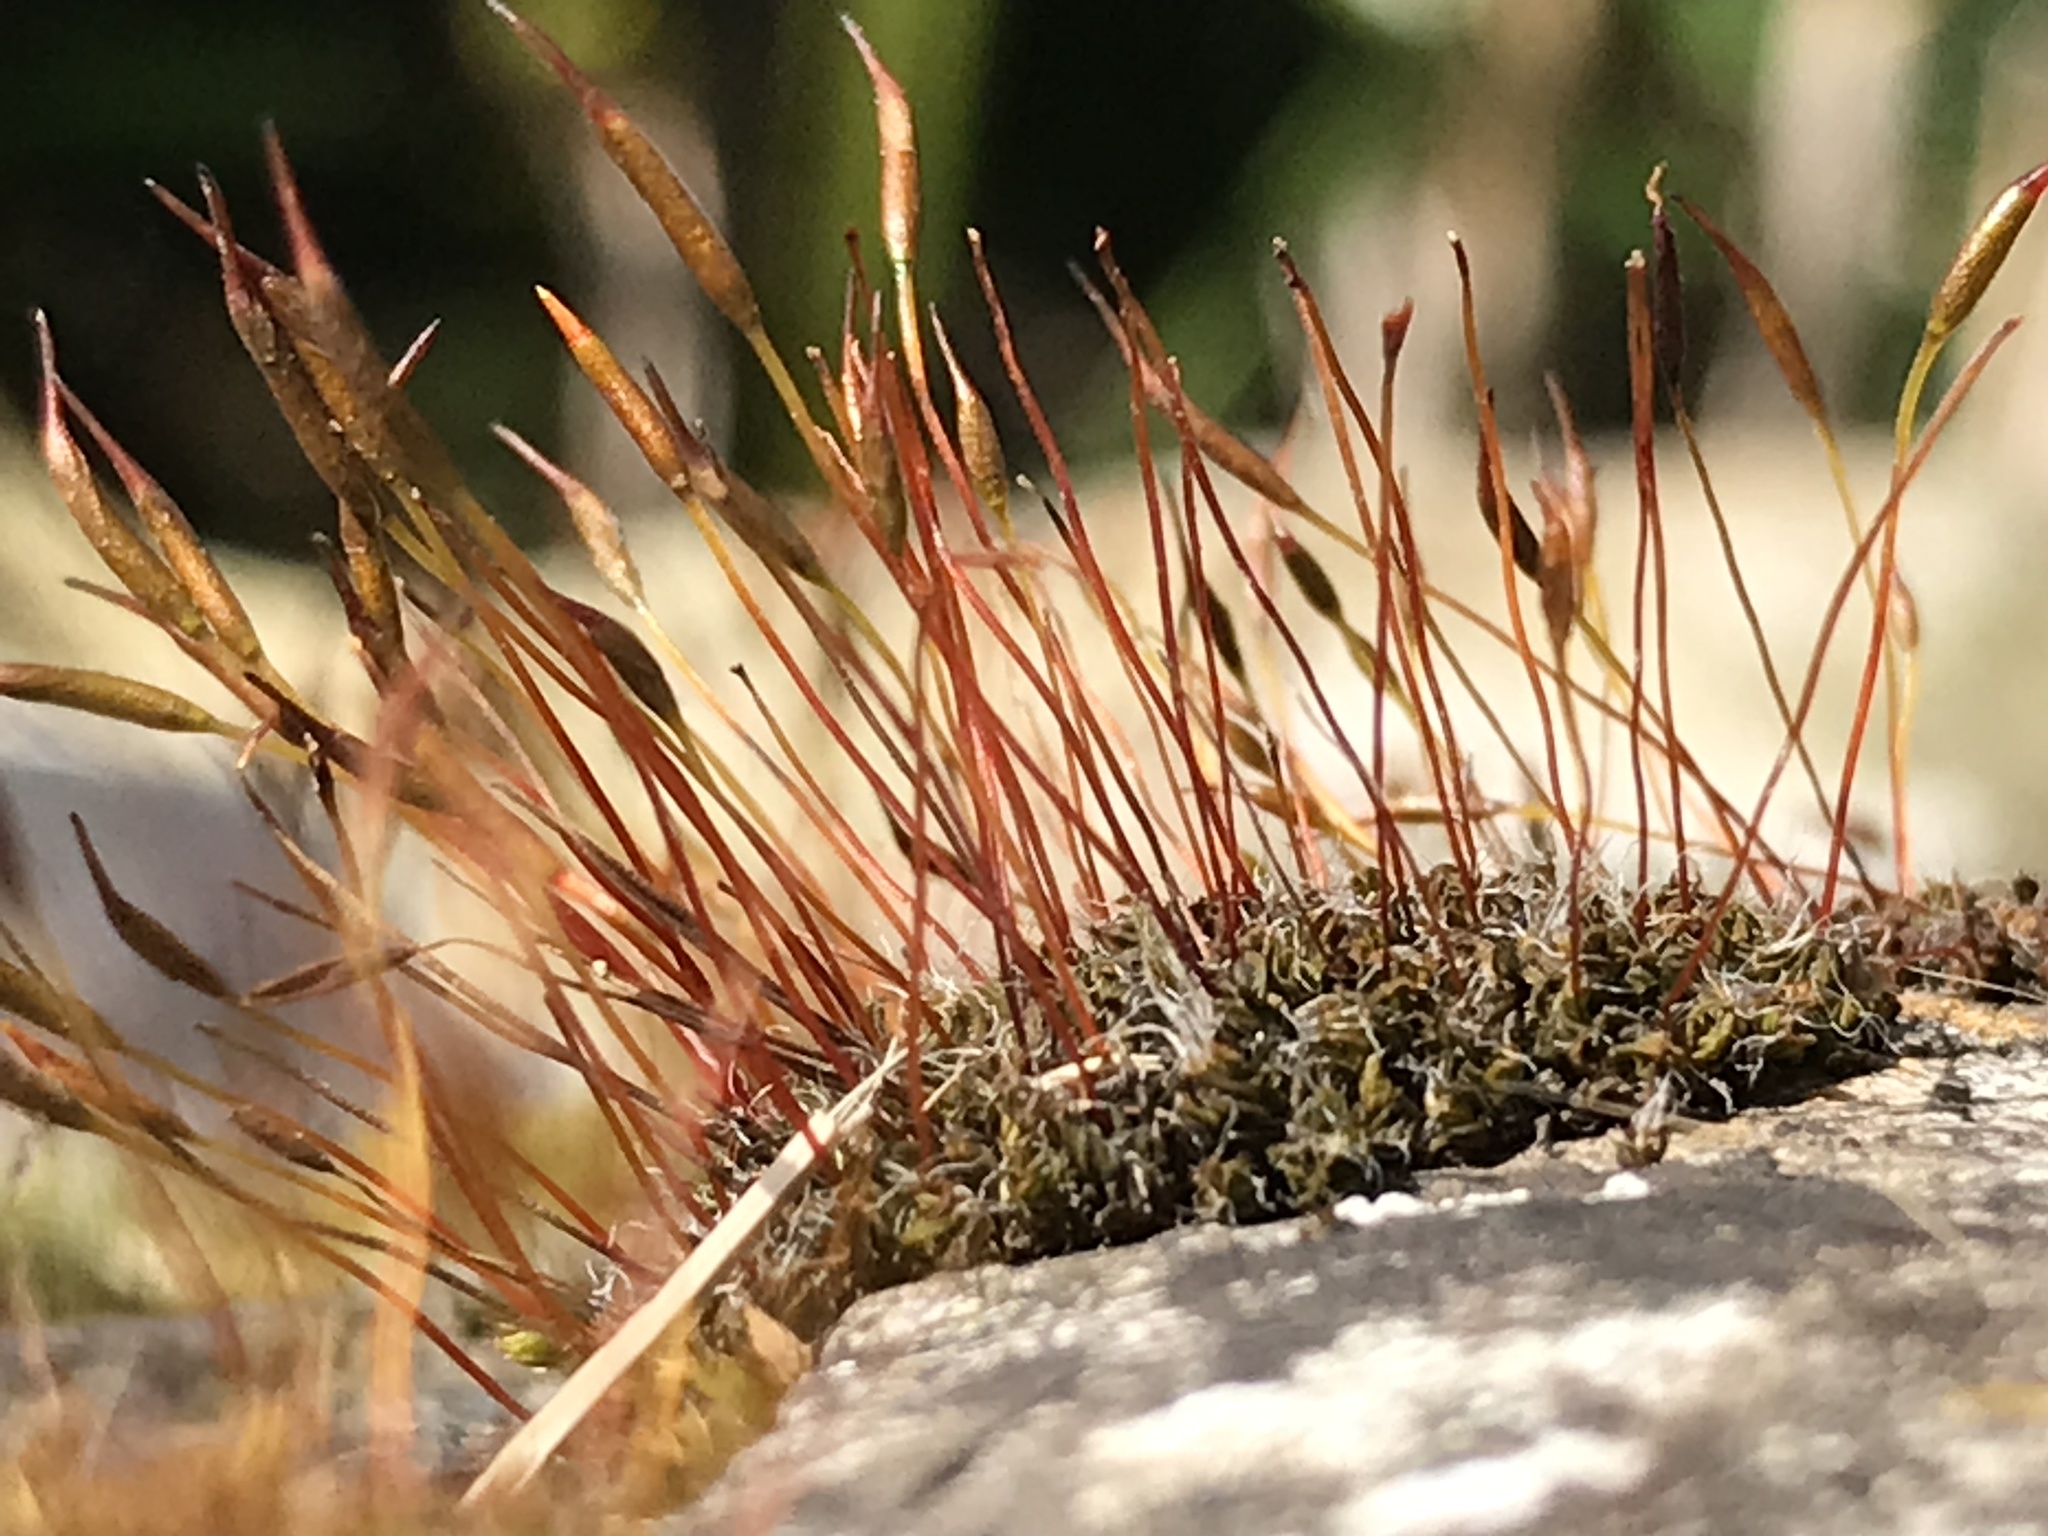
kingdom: Plantae
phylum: Bryophyta
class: Bryopsida
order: Pottiales
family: Pottiaceae
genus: Tortula
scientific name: Tortula muralis
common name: Wall screw-moss
